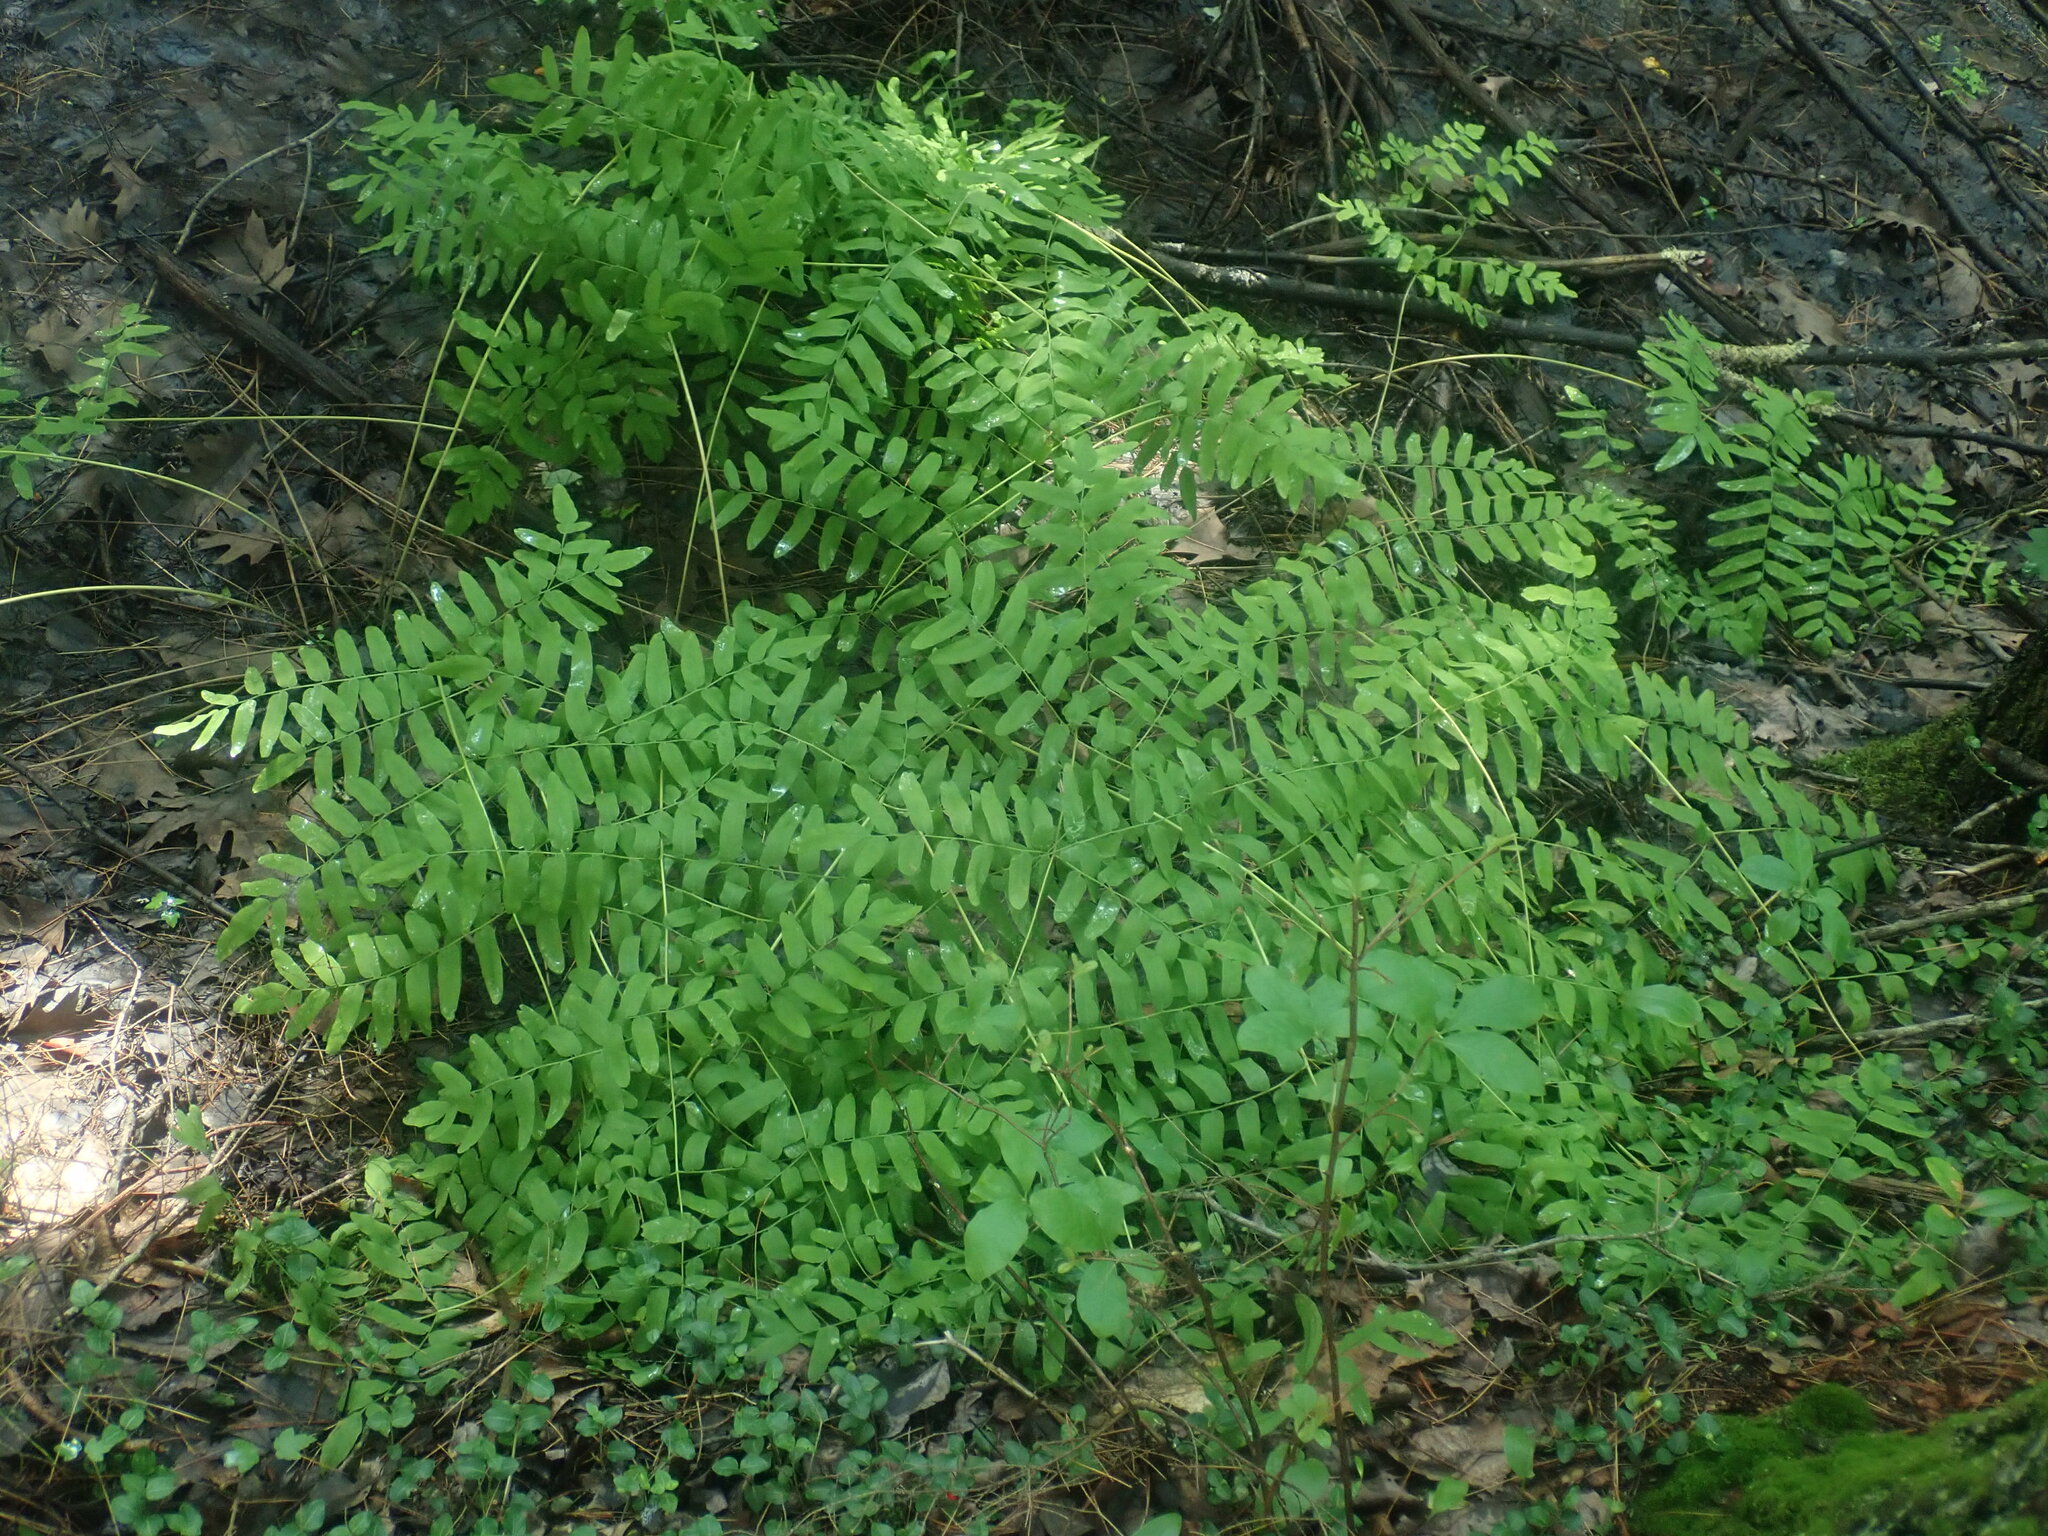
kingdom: Plantae
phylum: Tracheophyta
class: Polypodiopsida
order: Osmundales
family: Osmundaceae
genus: Osmunda
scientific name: Osmunda spectabilis
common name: American royal fern
